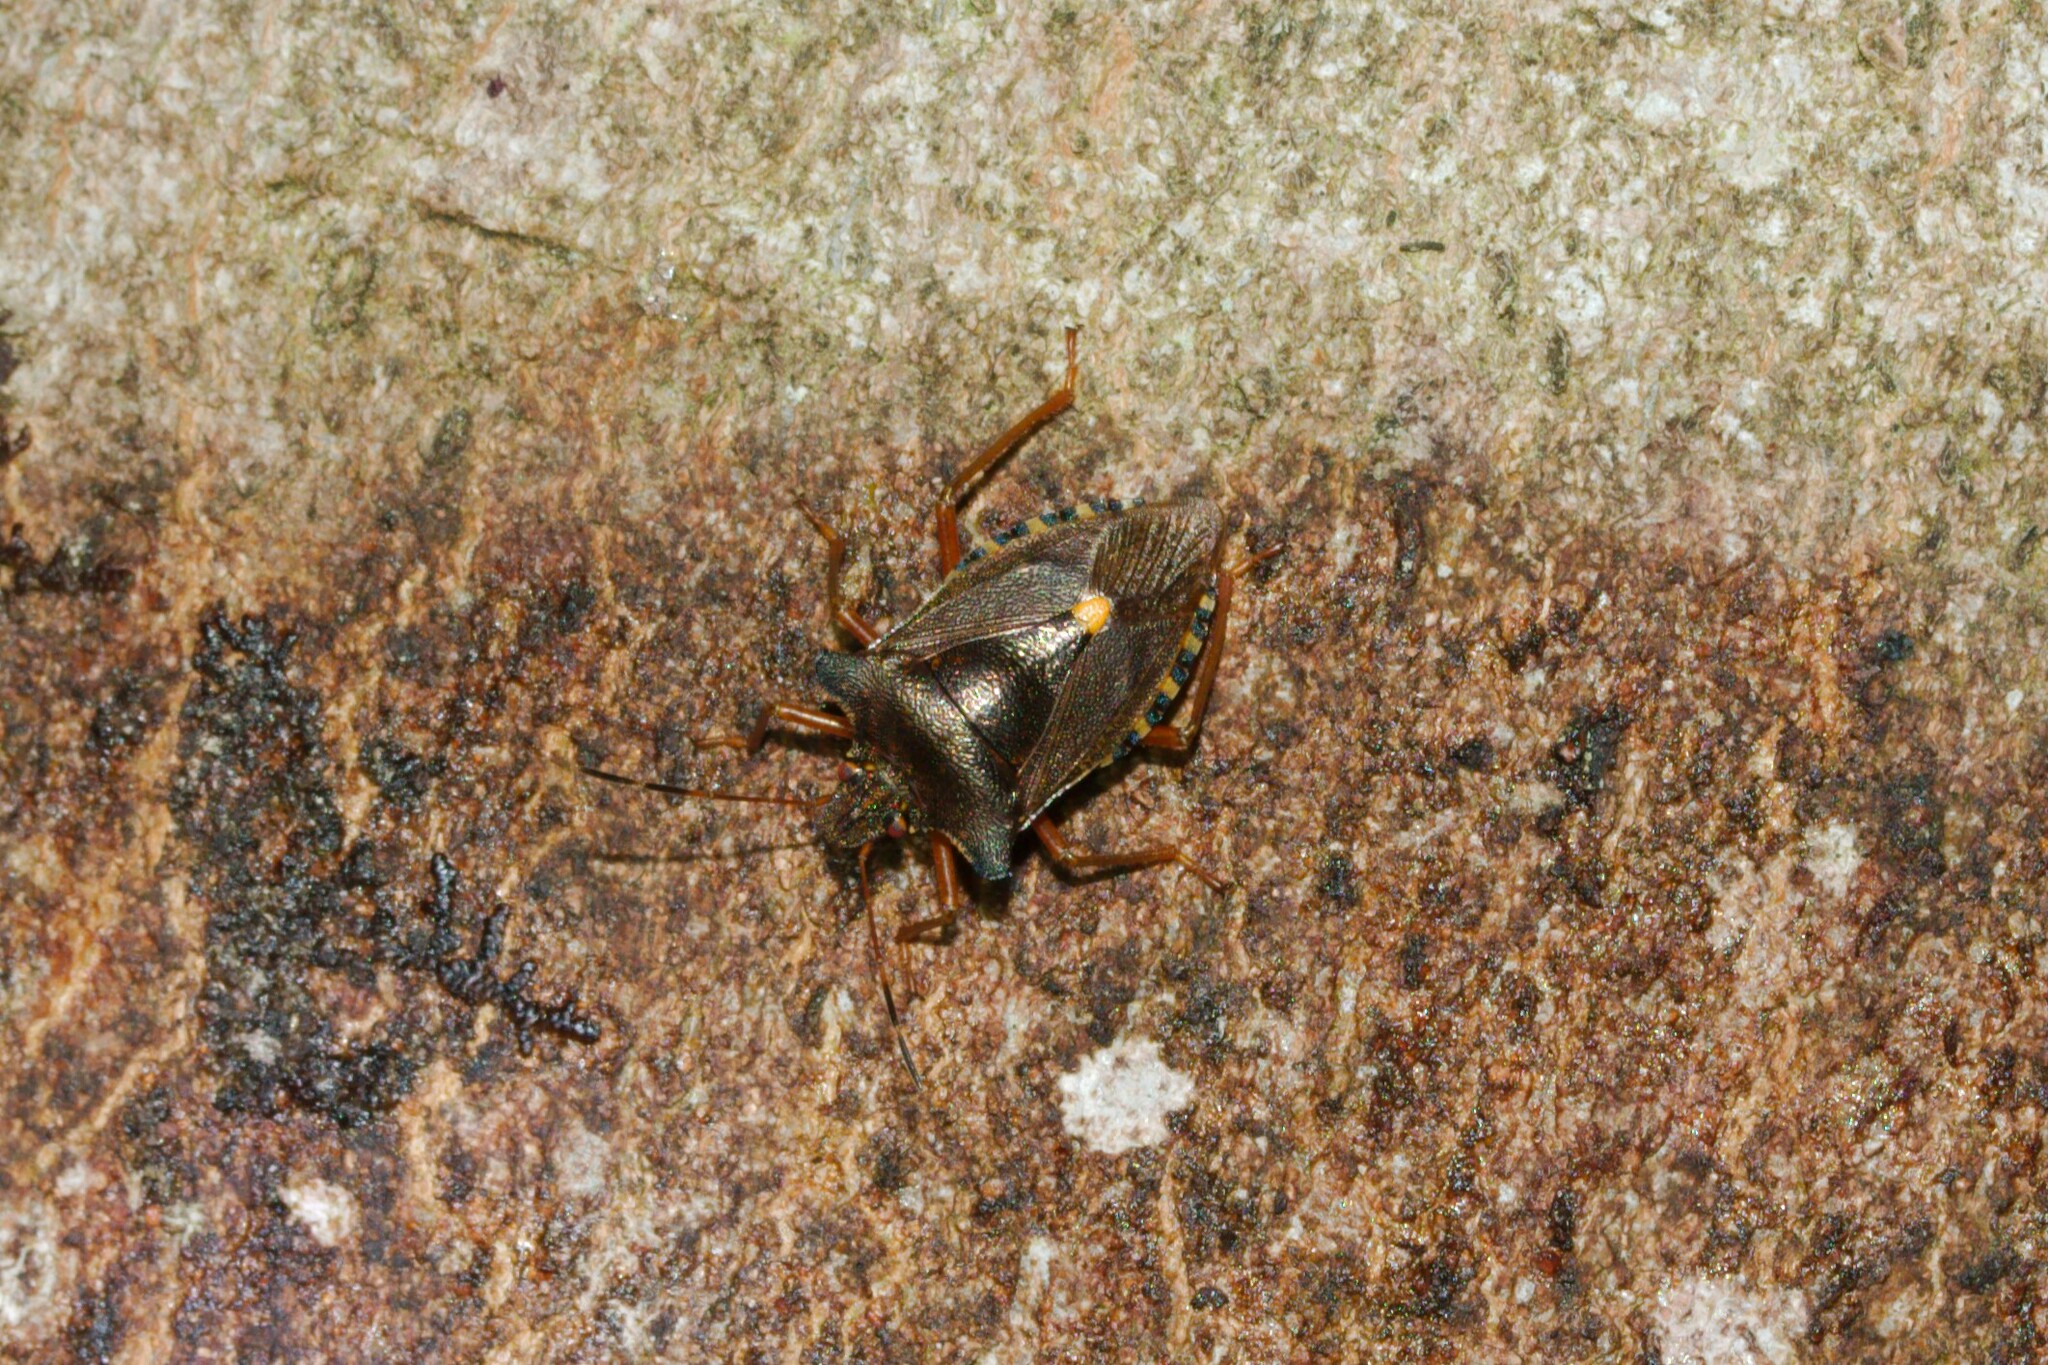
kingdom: Animalia
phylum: Arthropoda
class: Insecta
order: Hemiptera
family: Pentatomidae
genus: Pentatoma
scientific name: Pentatoma rufipes
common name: Forest bug
